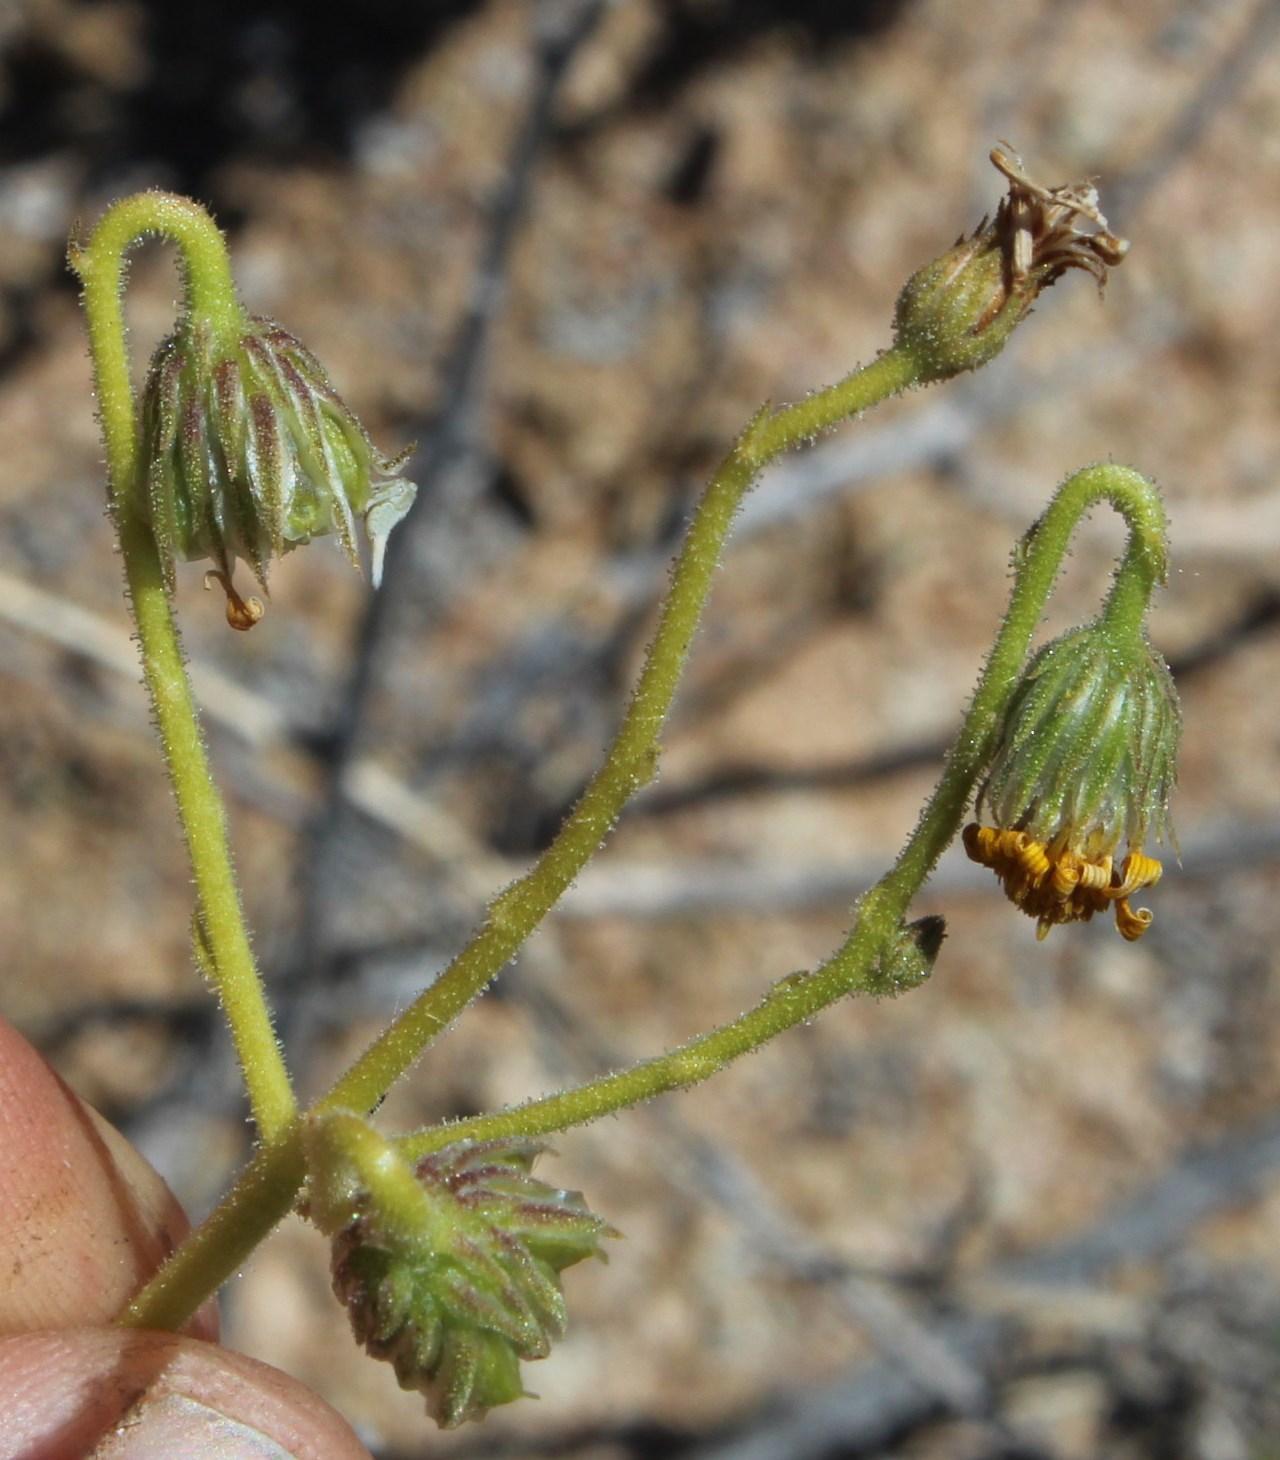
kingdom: Plantae
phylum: Tracheophyta
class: Magnoliopsida
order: Asterales
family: Asteraceae
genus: Osteospermum
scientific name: Osteospermum microcarpum
